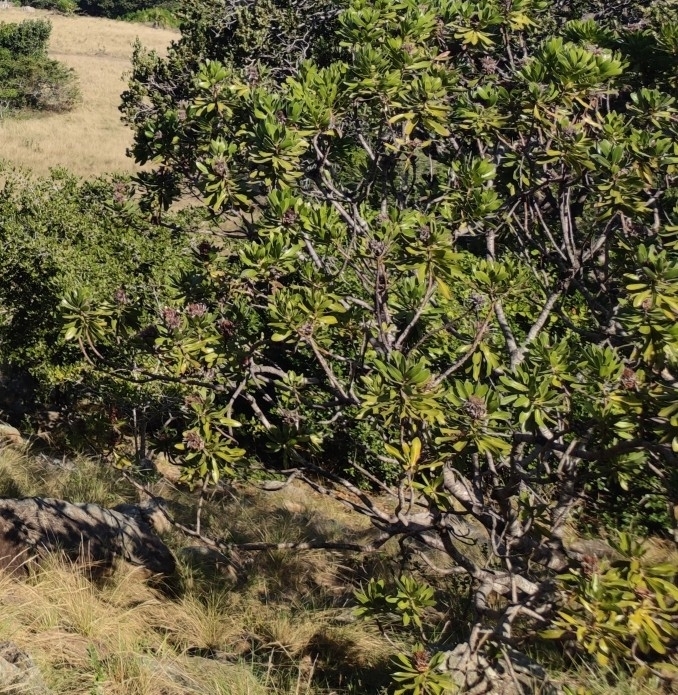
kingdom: Plantae
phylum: Tracheophyta
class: Magnoliopsida
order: Proteales
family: Proteaceae
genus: Protea
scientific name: Protea roupelliae
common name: Silver sugarbush
